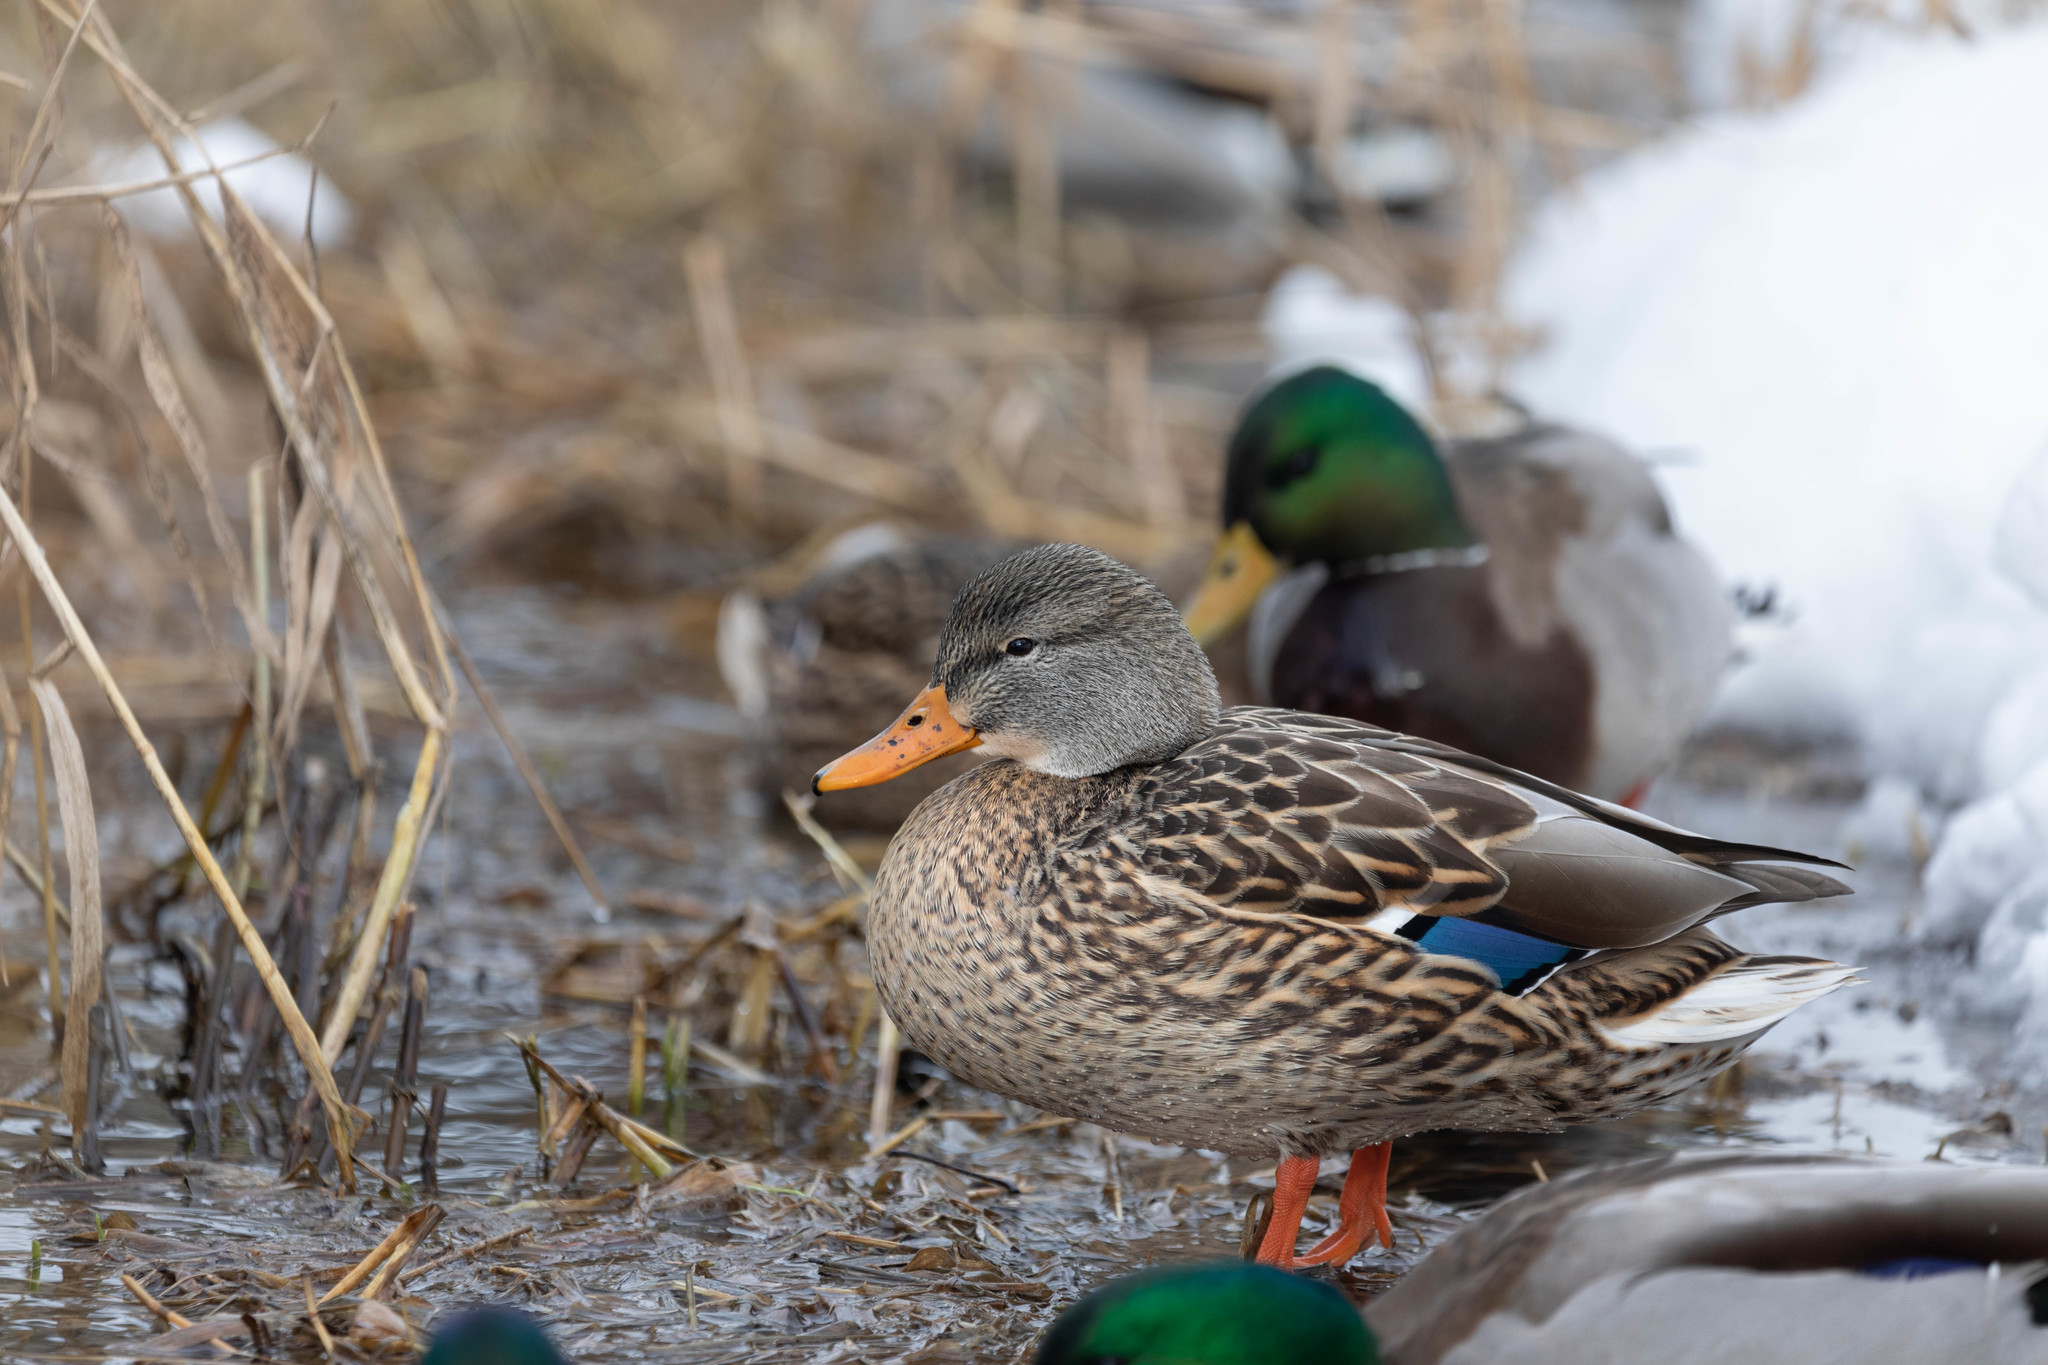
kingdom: Animalia
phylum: Chordata
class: Aves
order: Anseriformes
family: Anatidae
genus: Anas
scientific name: Anas platyrhynchos
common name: Mallard
